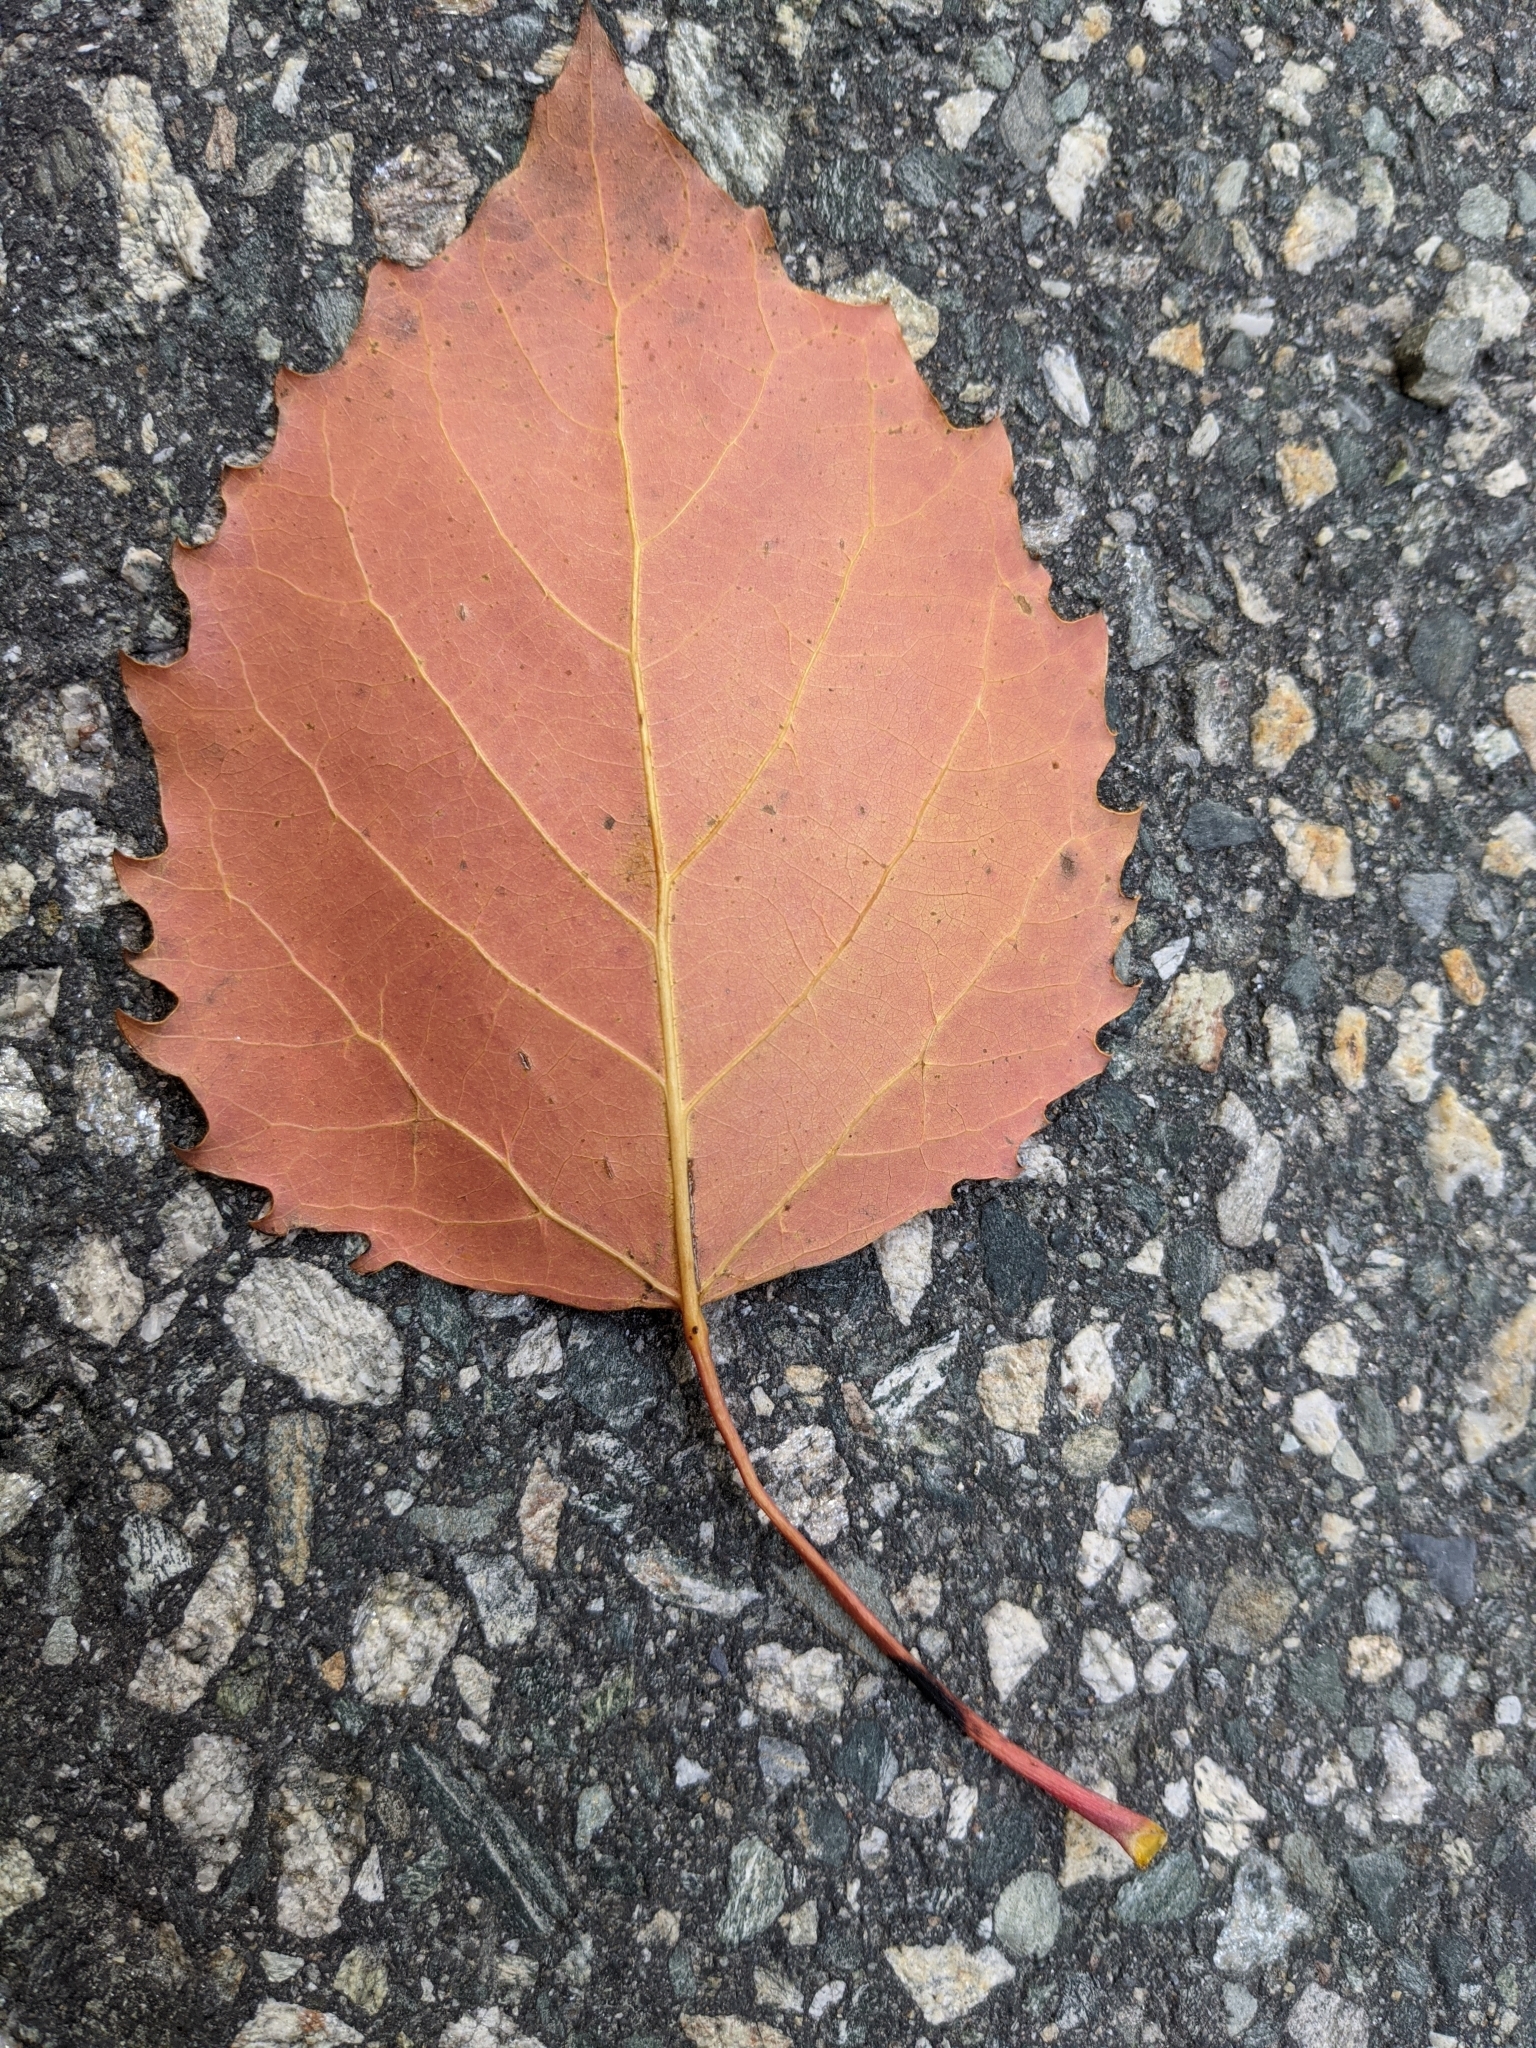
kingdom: Plantae
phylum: Tracheophyta
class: Magnoliopsida
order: Malpighiales
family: Salicaceae
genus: Populus
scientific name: Populus grandidentata
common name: Bigtooth aspen
